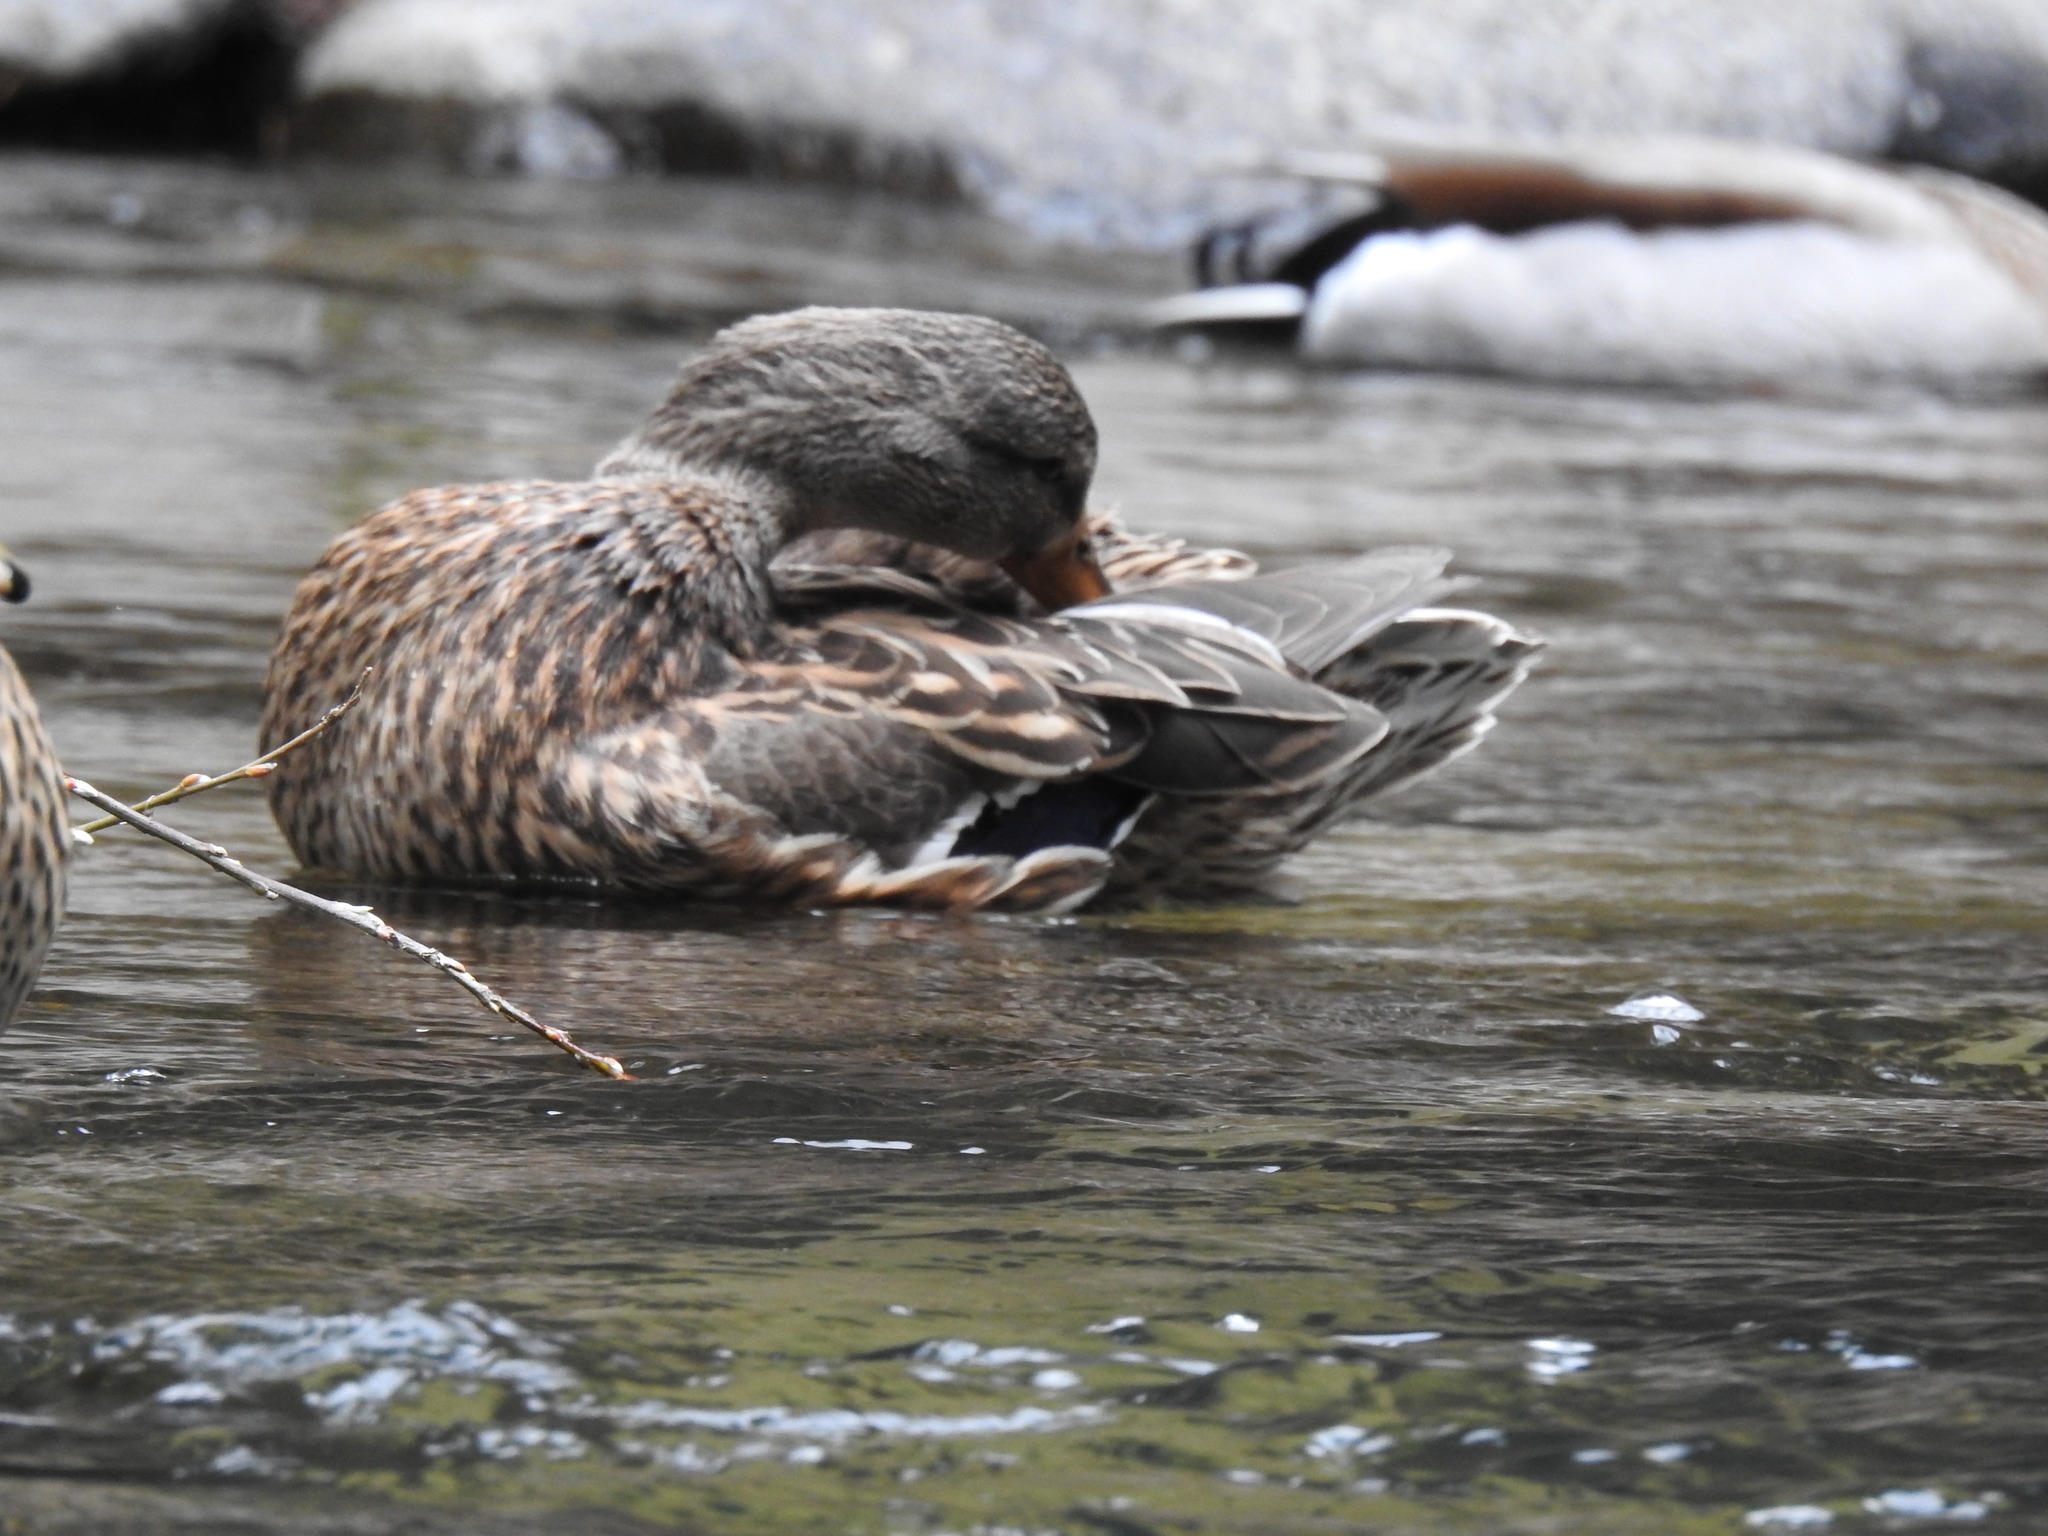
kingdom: Animalia
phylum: Chordata
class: Aves
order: Anseriformes
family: Anatidae
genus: Anas
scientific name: Anas platyrhynchos
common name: Mallard
